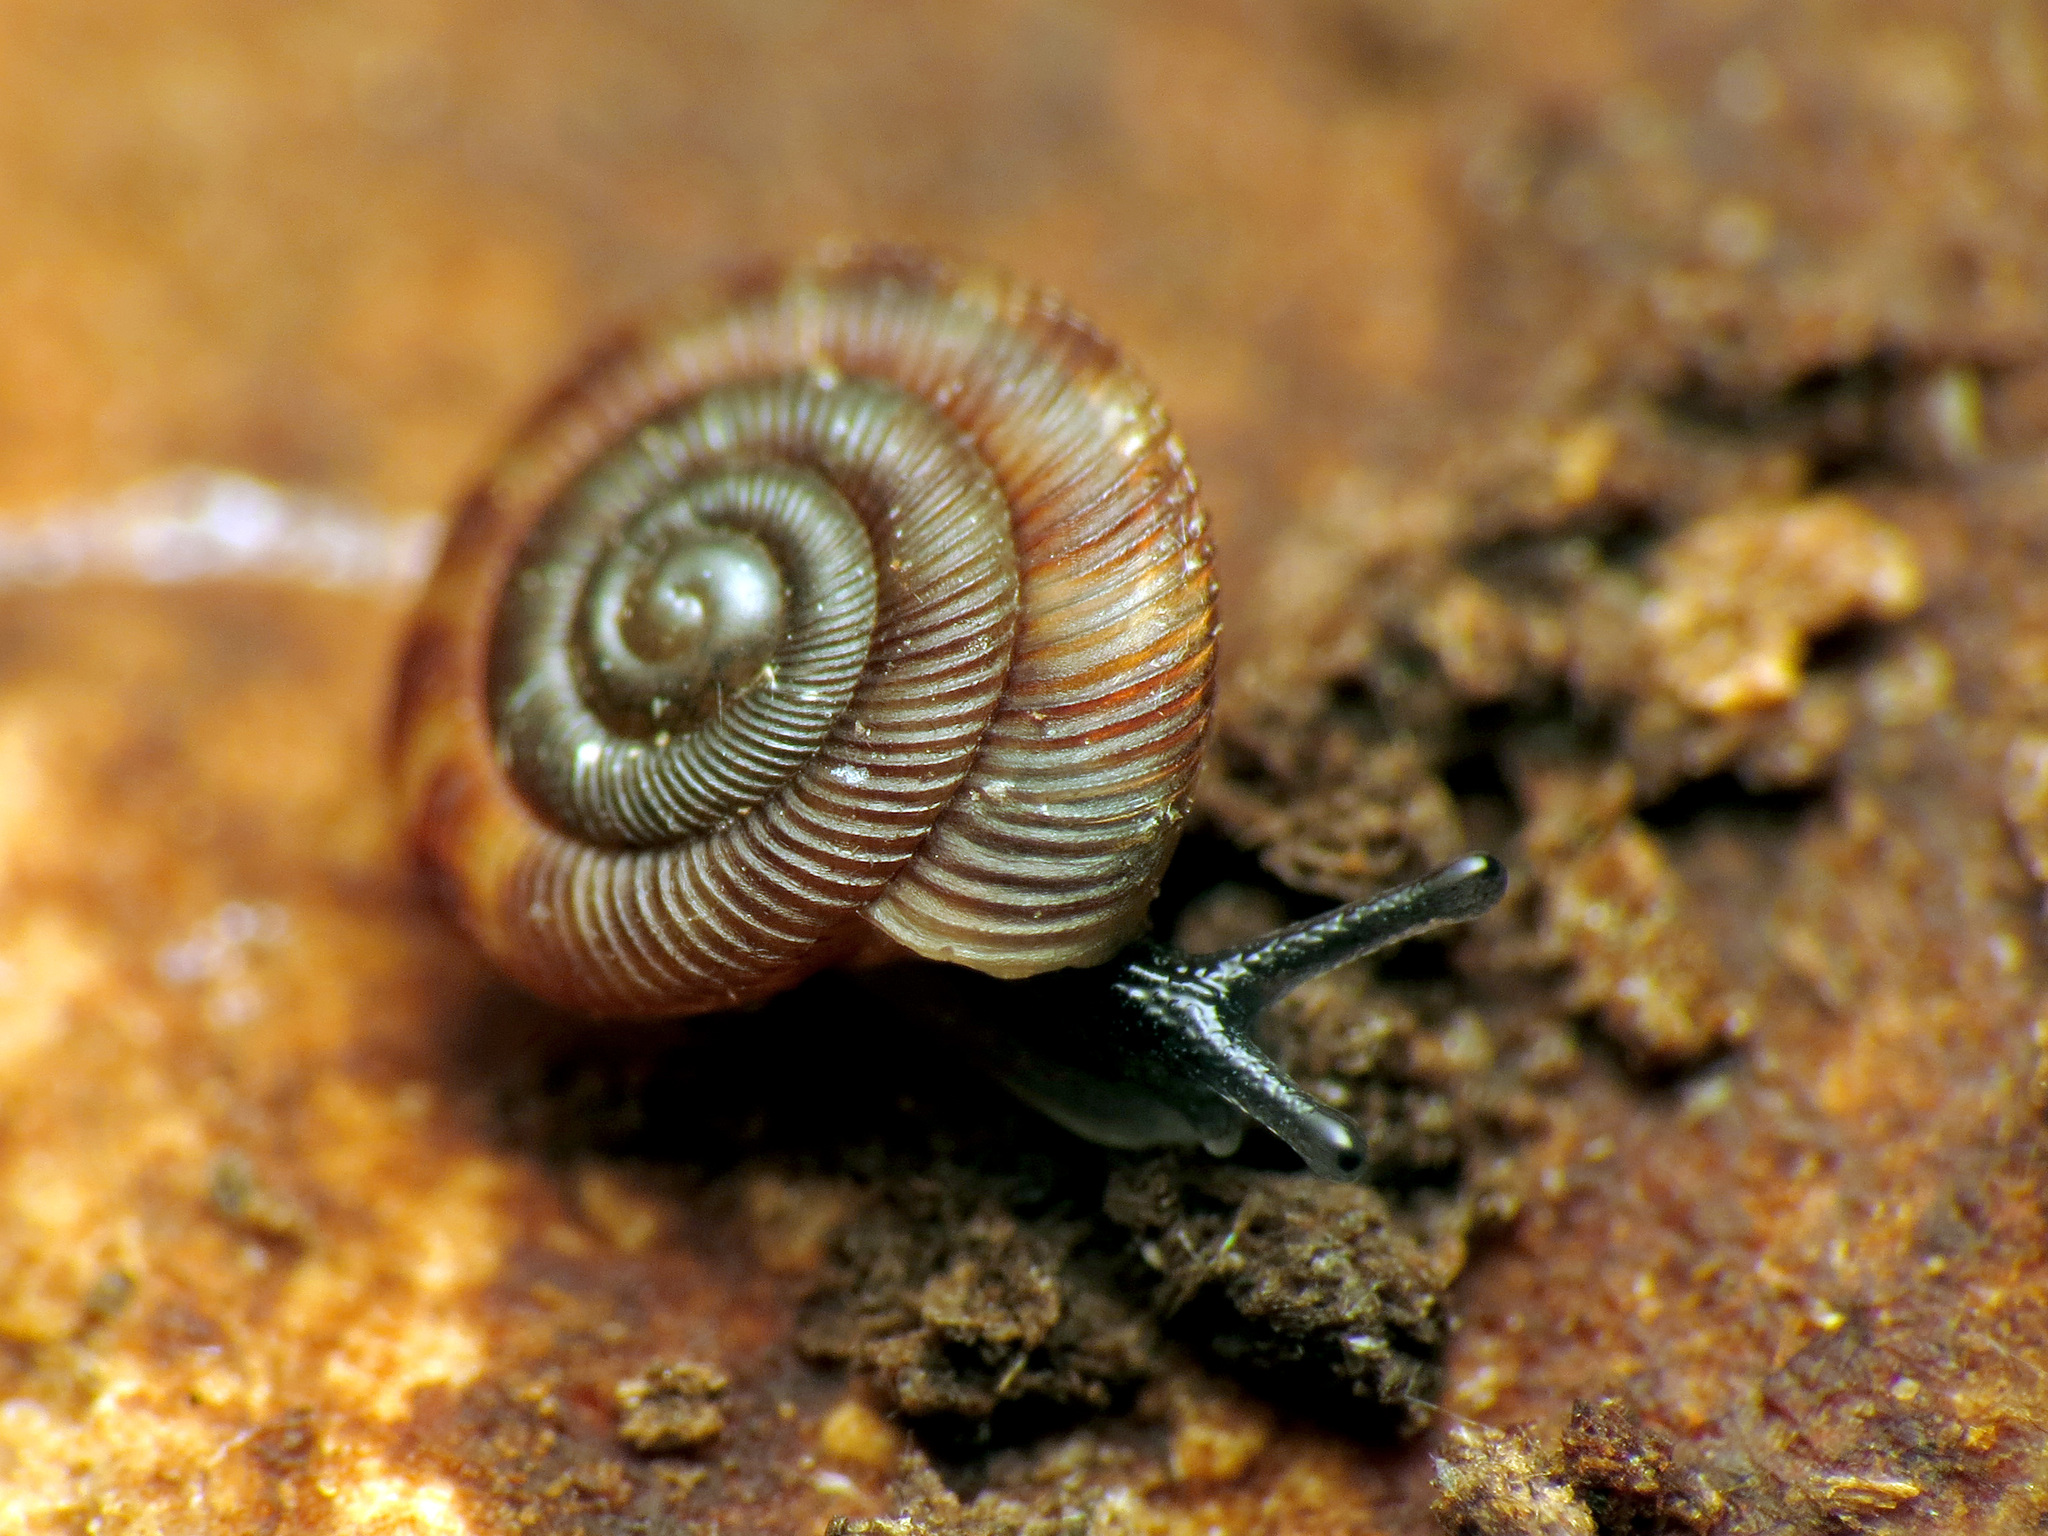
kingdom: Animalia
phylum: Mollusca
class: Gastropoda
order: Stylommatophora
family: Discidae
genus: Discus
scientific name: Discus rotundatus
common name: Rounded snail
